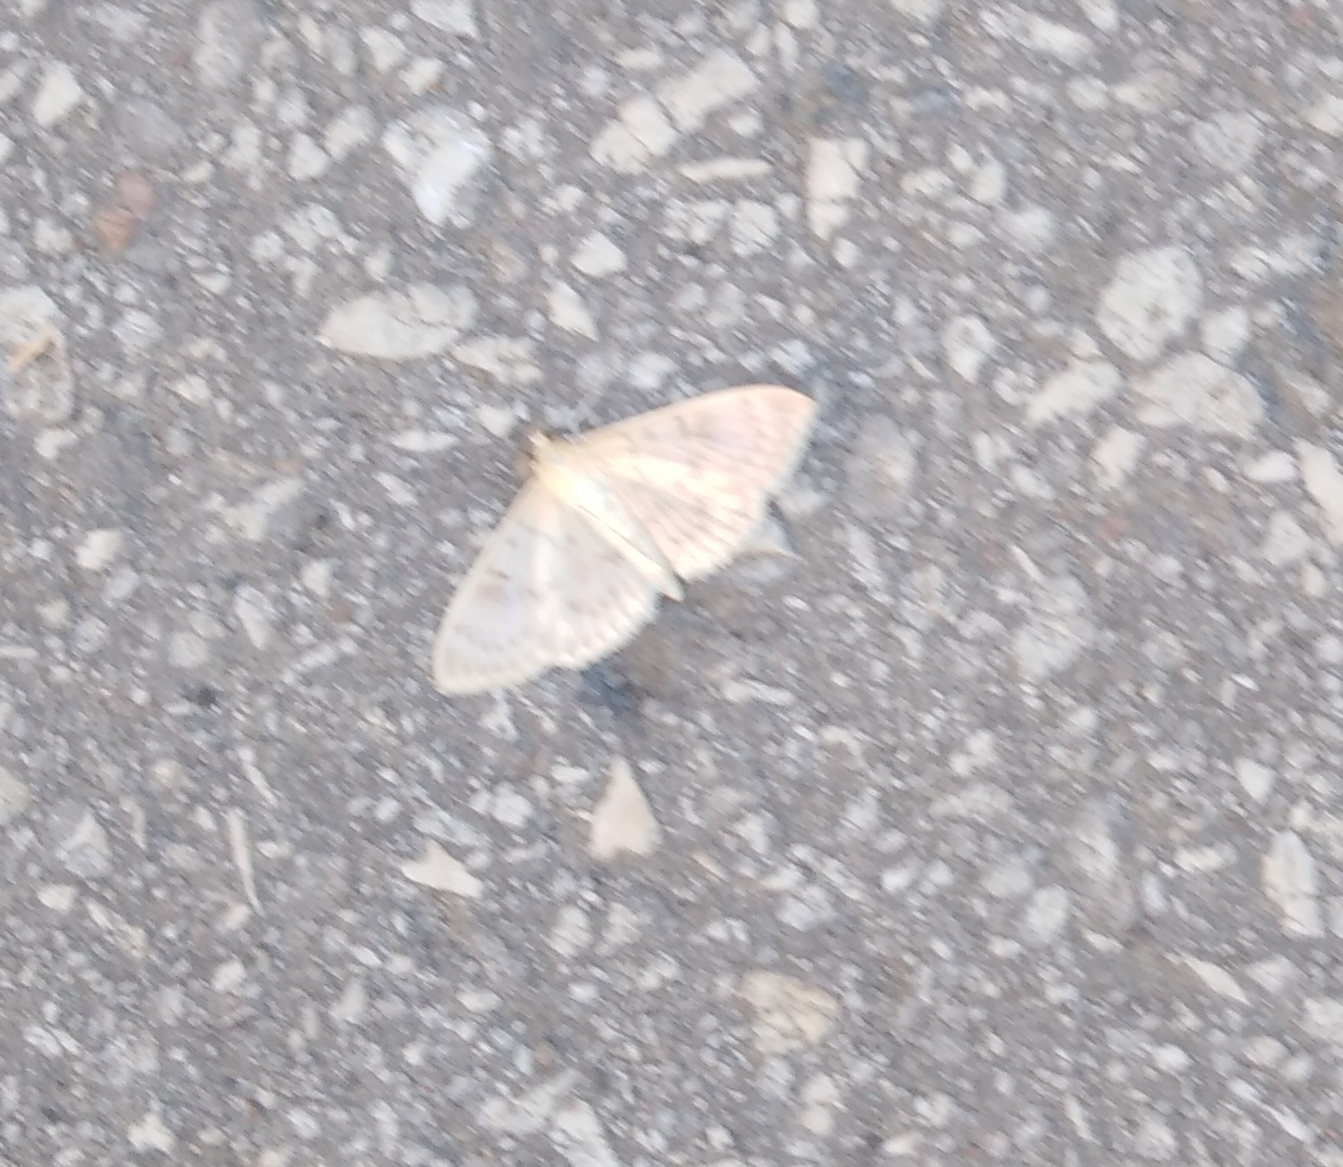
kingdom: Animalia
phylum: Arthropoda
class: Insecta
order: Lepidoptera
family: Crambidae
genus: Patania
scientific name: Patania ruralis
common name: Mother of pearl
